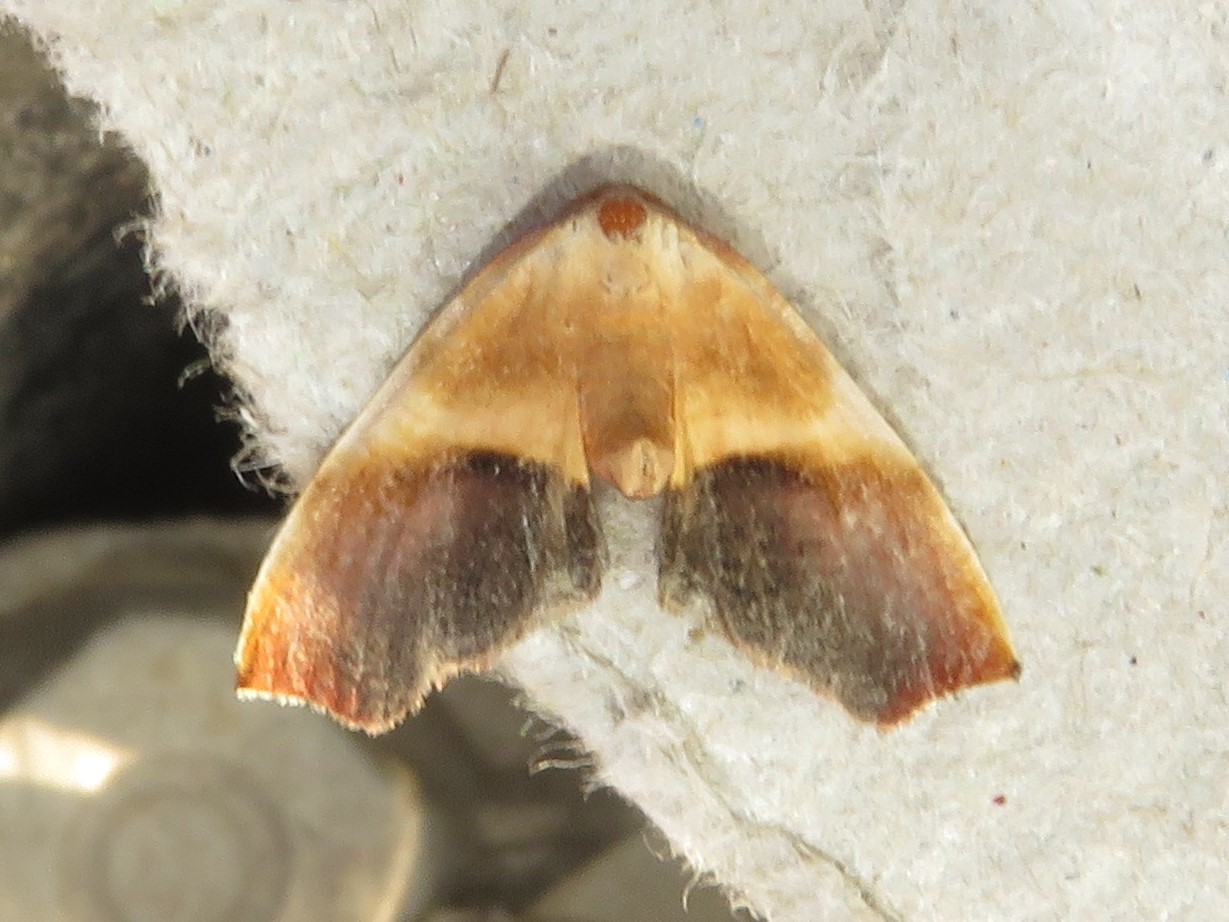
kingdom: Animalia
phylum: Arthropoda
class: Insecta
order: Lepidoptera
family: Geometridae
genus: Plagodis
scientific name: Plagodis kuetzingi
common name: Purple plagodis
